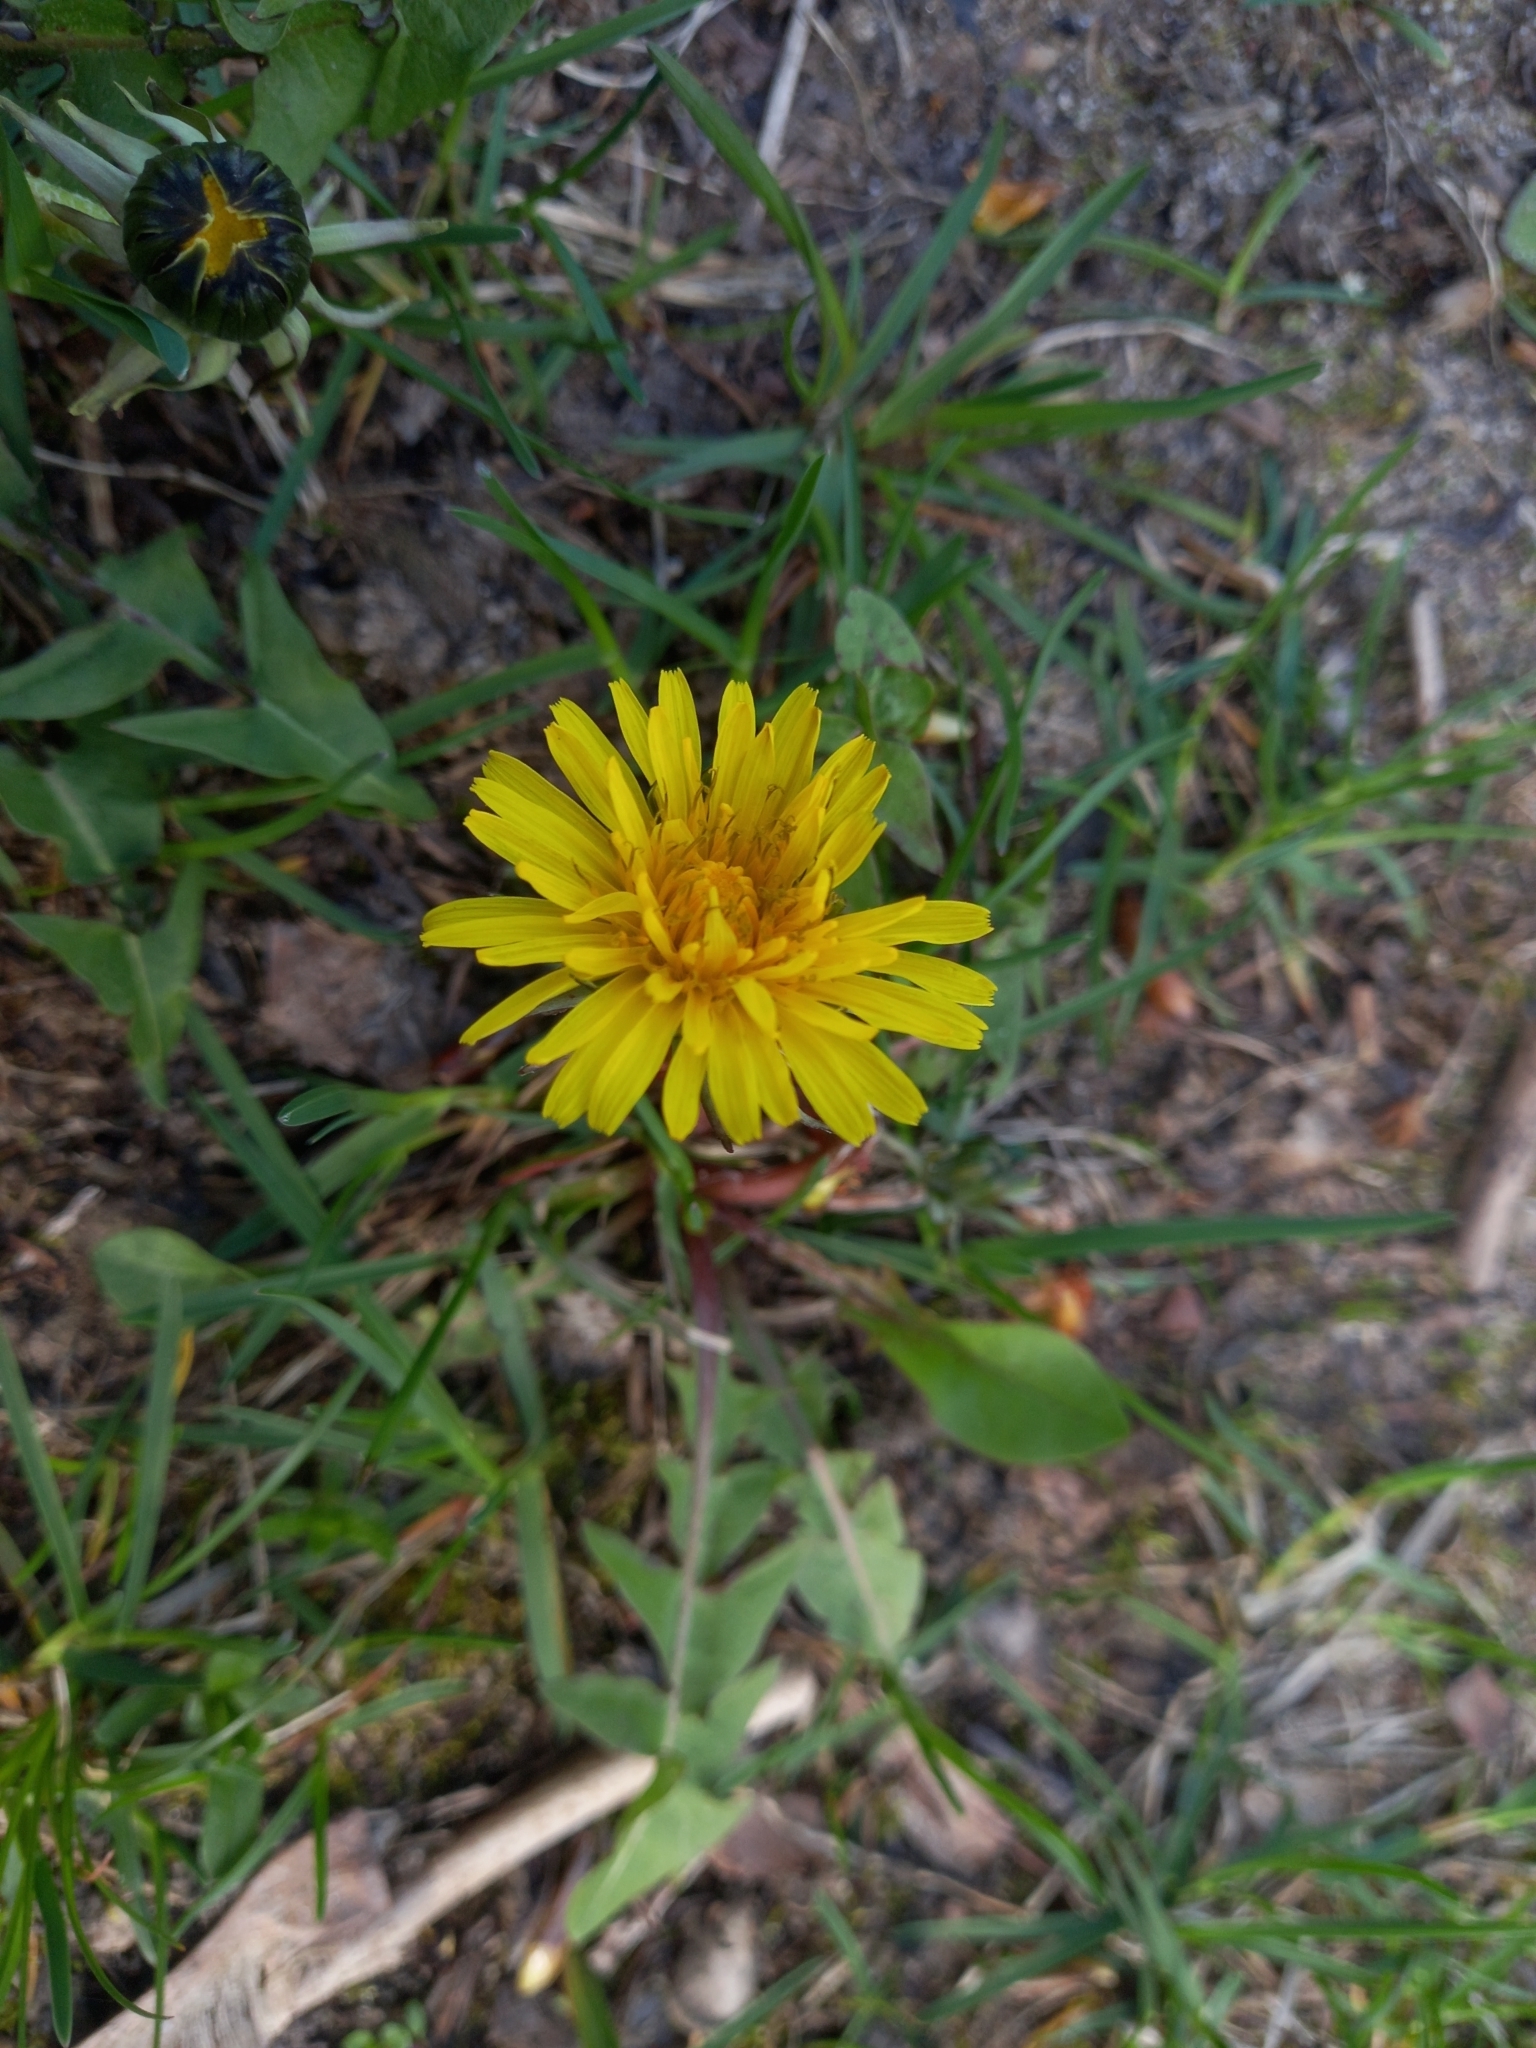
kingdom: Plantae
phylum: Tracheophyta
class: Magnoliopsida
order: Asterales
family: Asteraceae
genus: Taraxacum
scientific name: Taraxacum officinale
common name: Common dandelion
